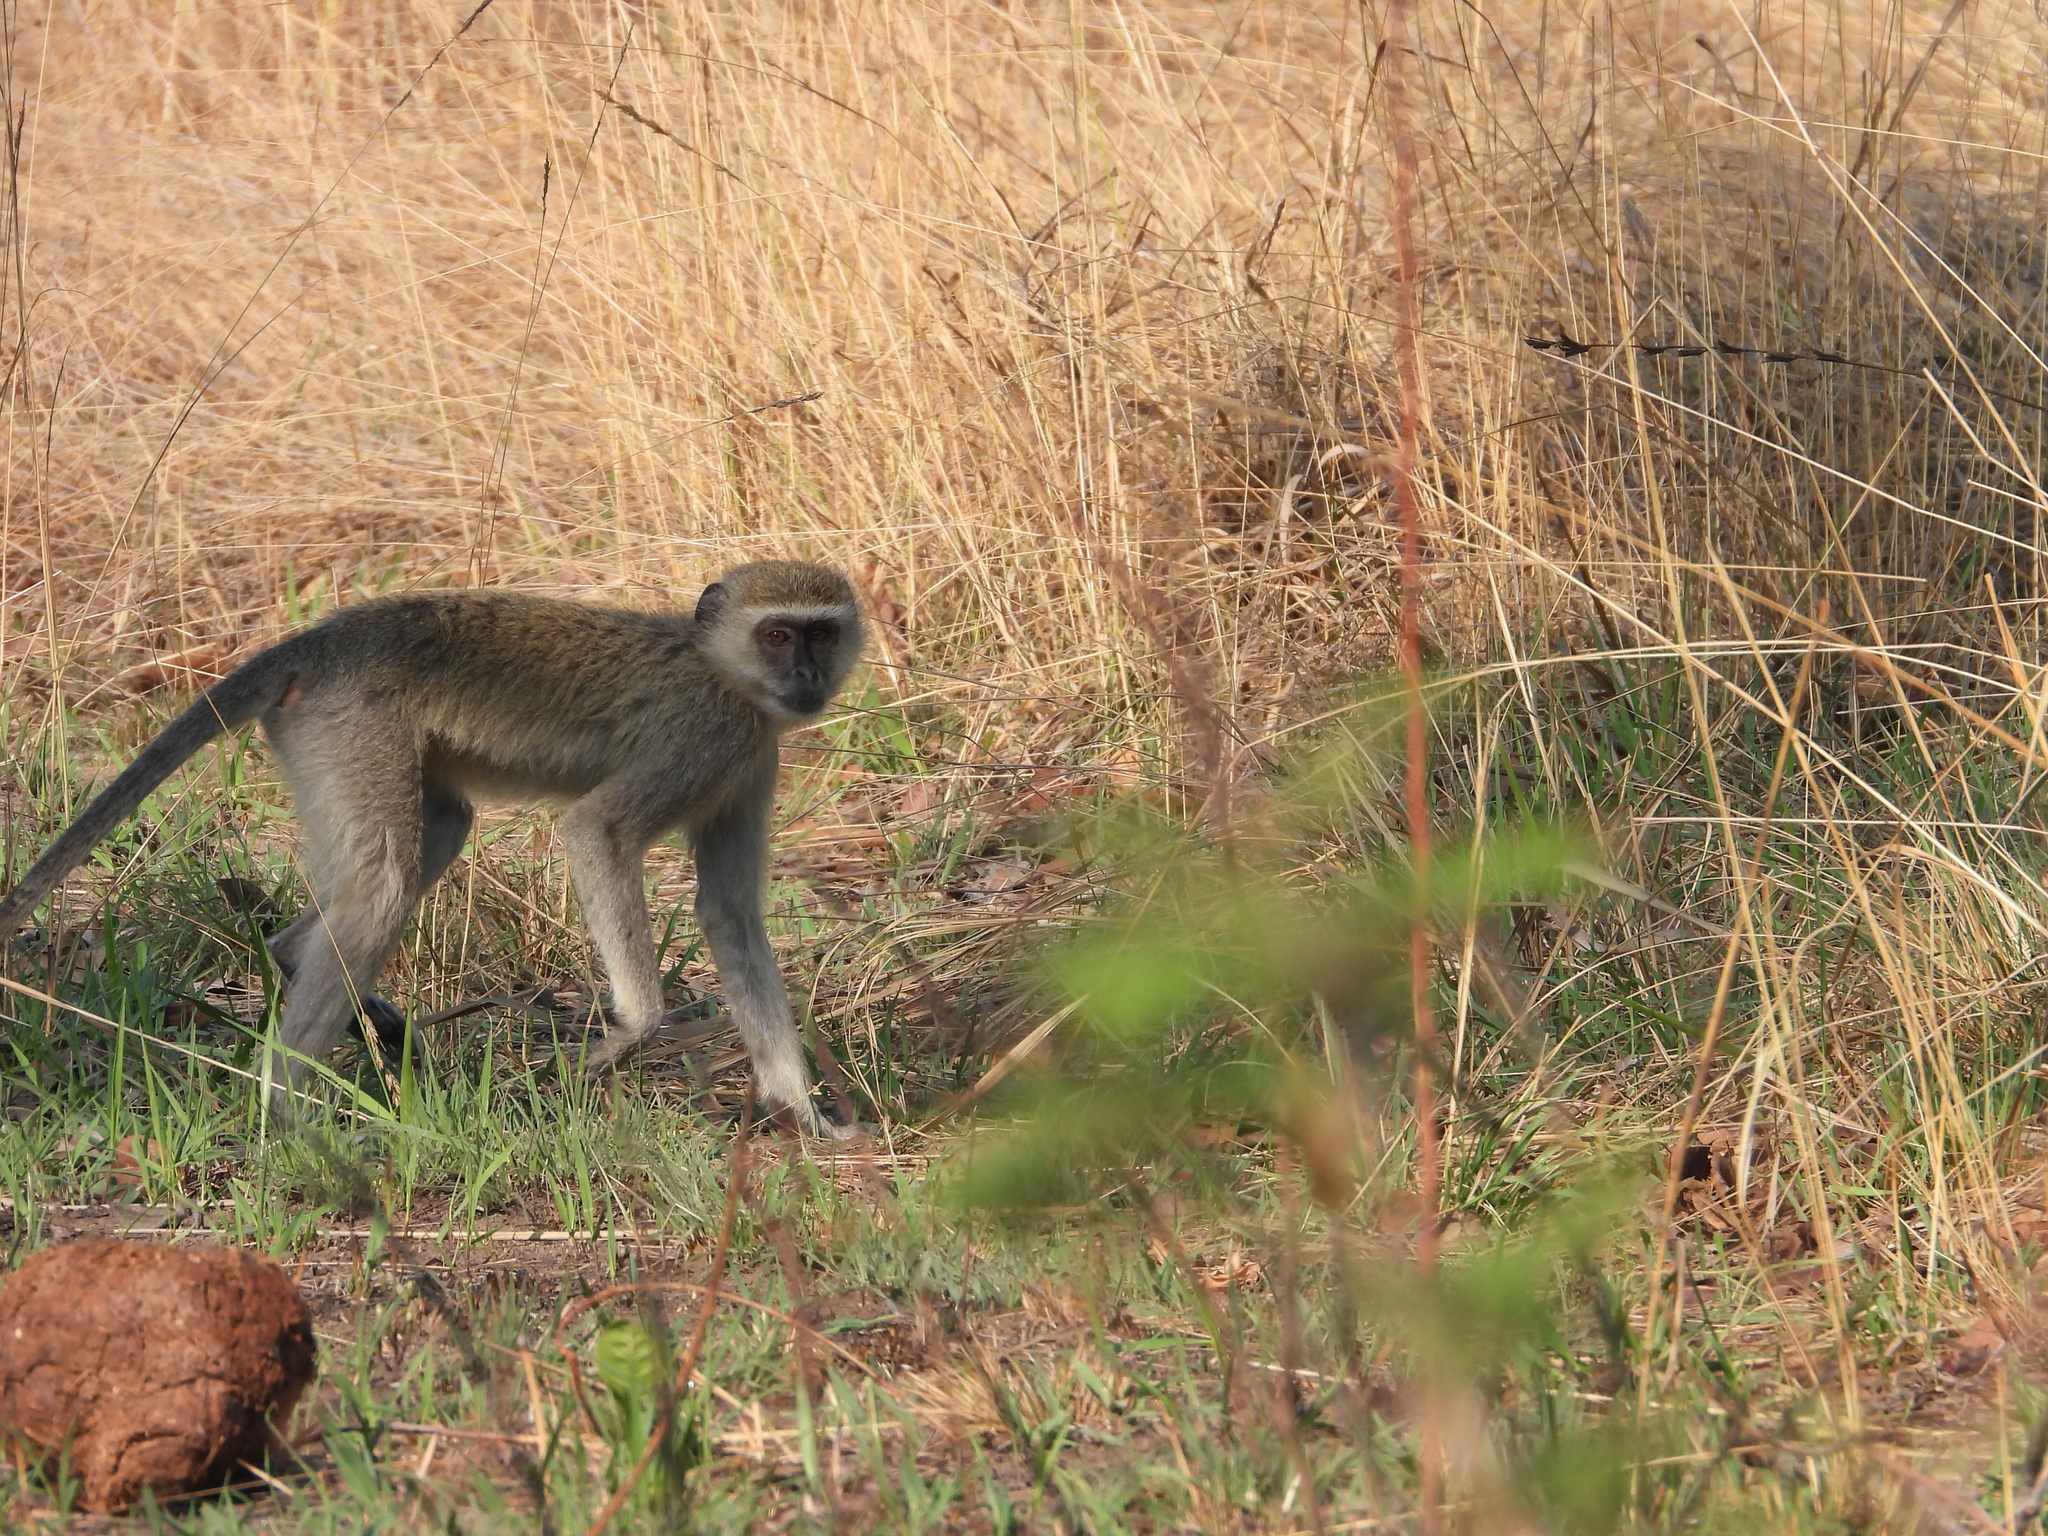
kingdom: Animalia
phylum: Chordata
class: Mammalia
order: Primates
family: Cercopithecidae
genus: Chlorocebus
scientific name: Chlorocebus cynosuros
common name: Malbrouck
